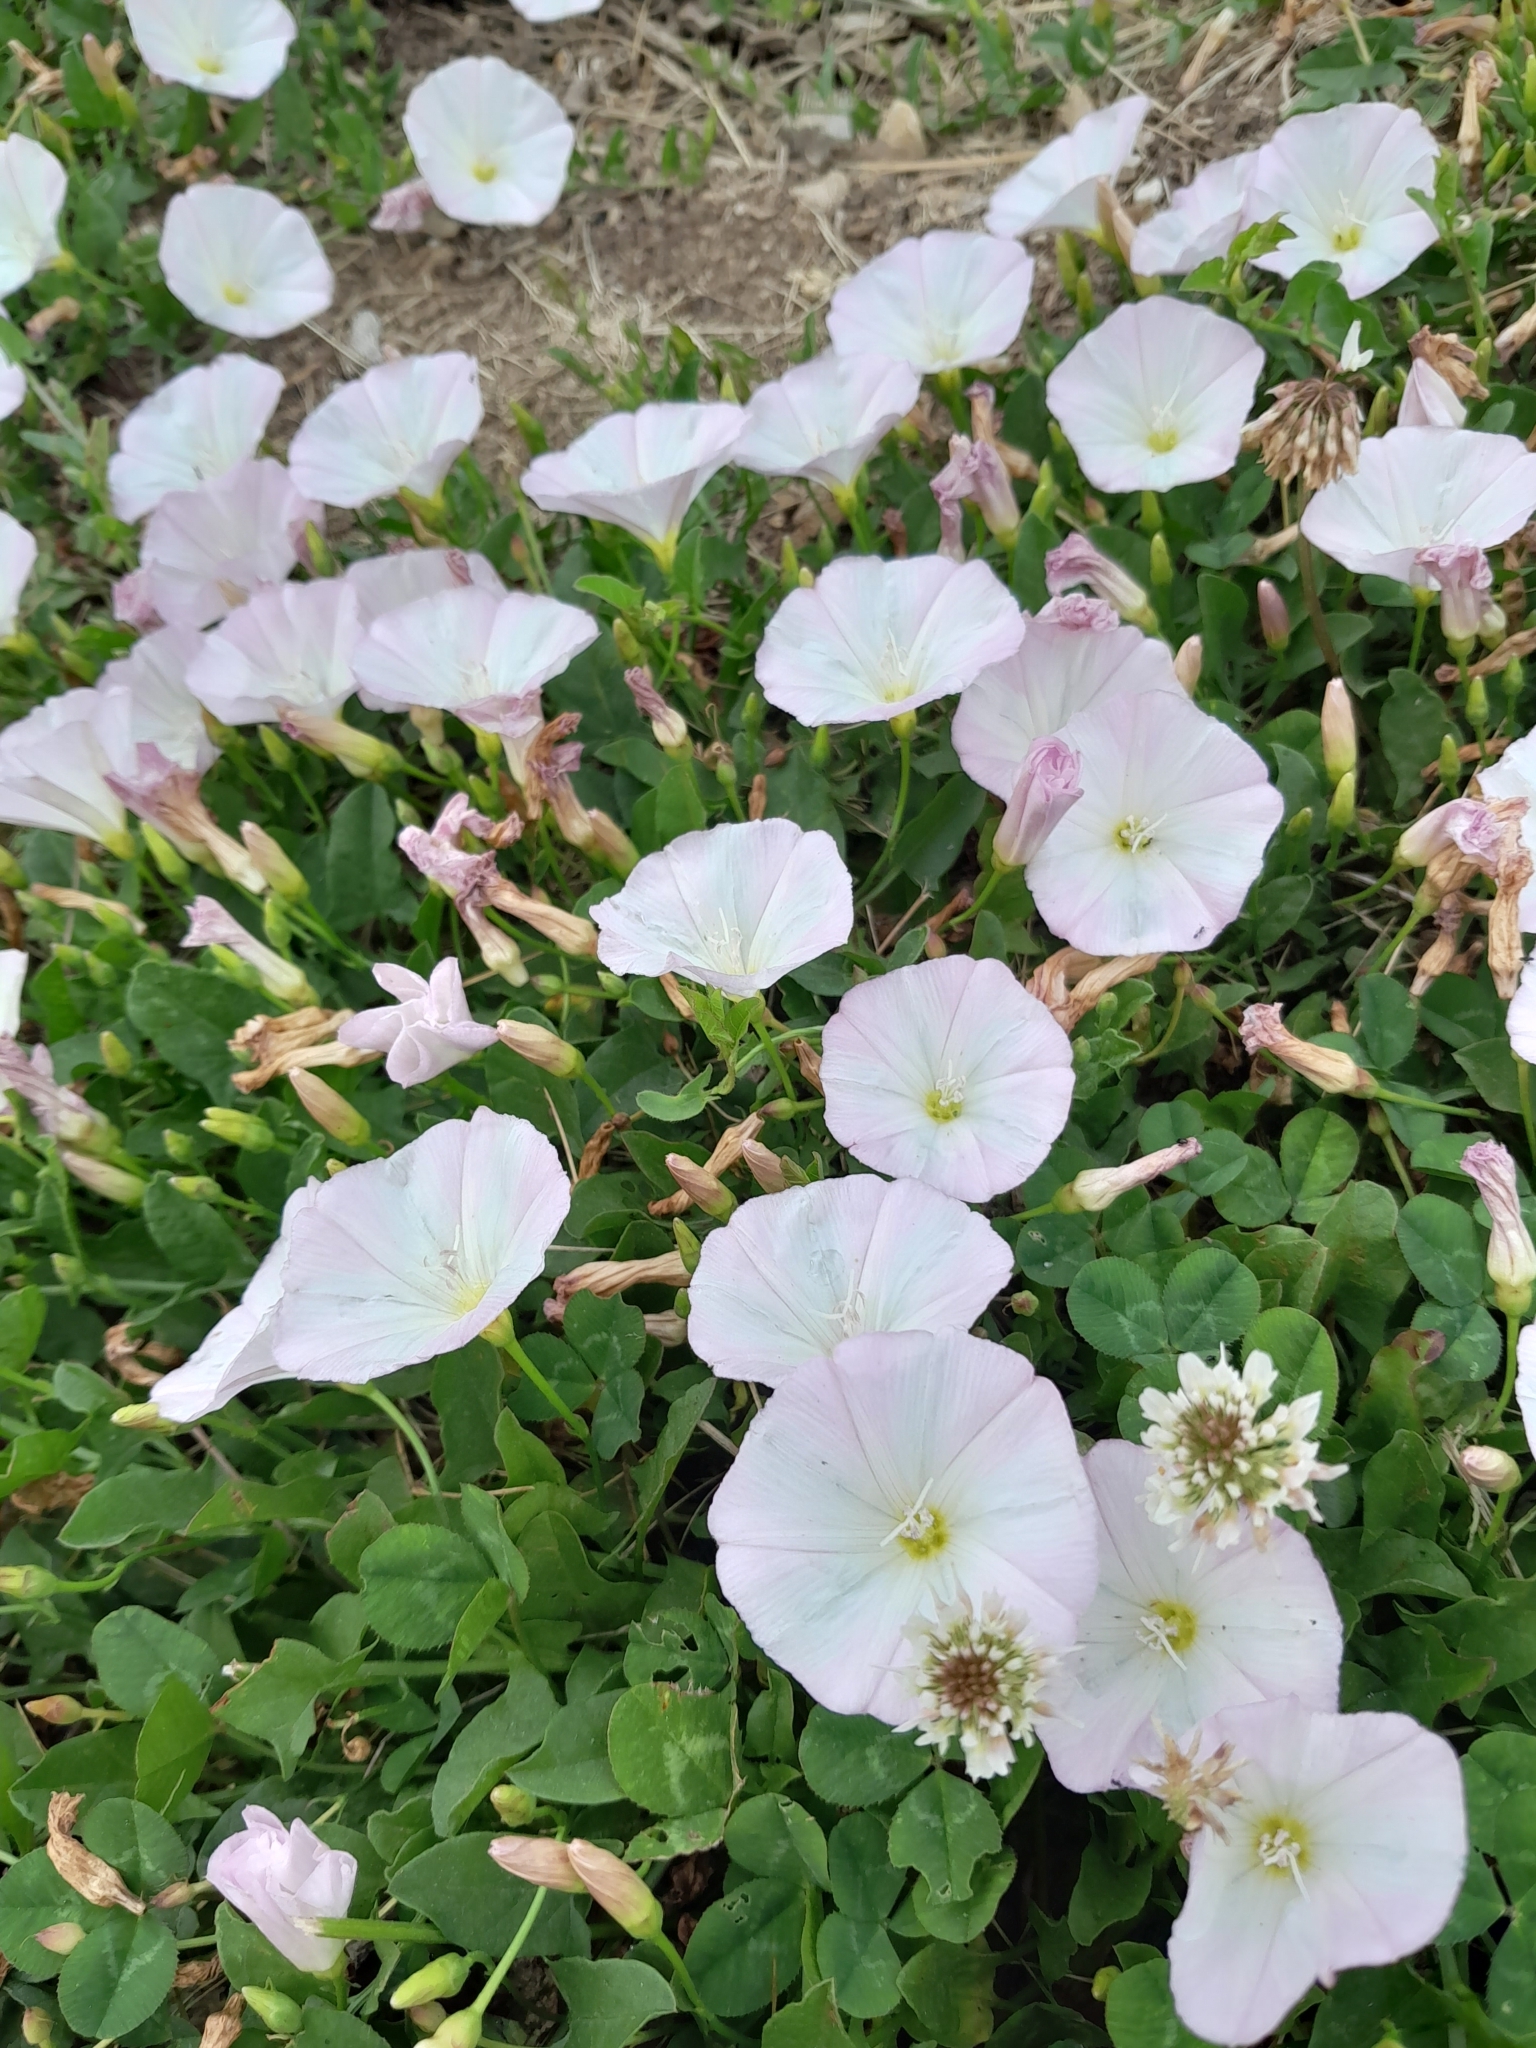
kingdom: Plantae
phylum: Tracheophyta
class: Magnoliopsida
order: Solanales
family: Convolvulaceae
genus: Convolvulus
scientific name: Convolvulus arvensis
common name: Field bindweed
